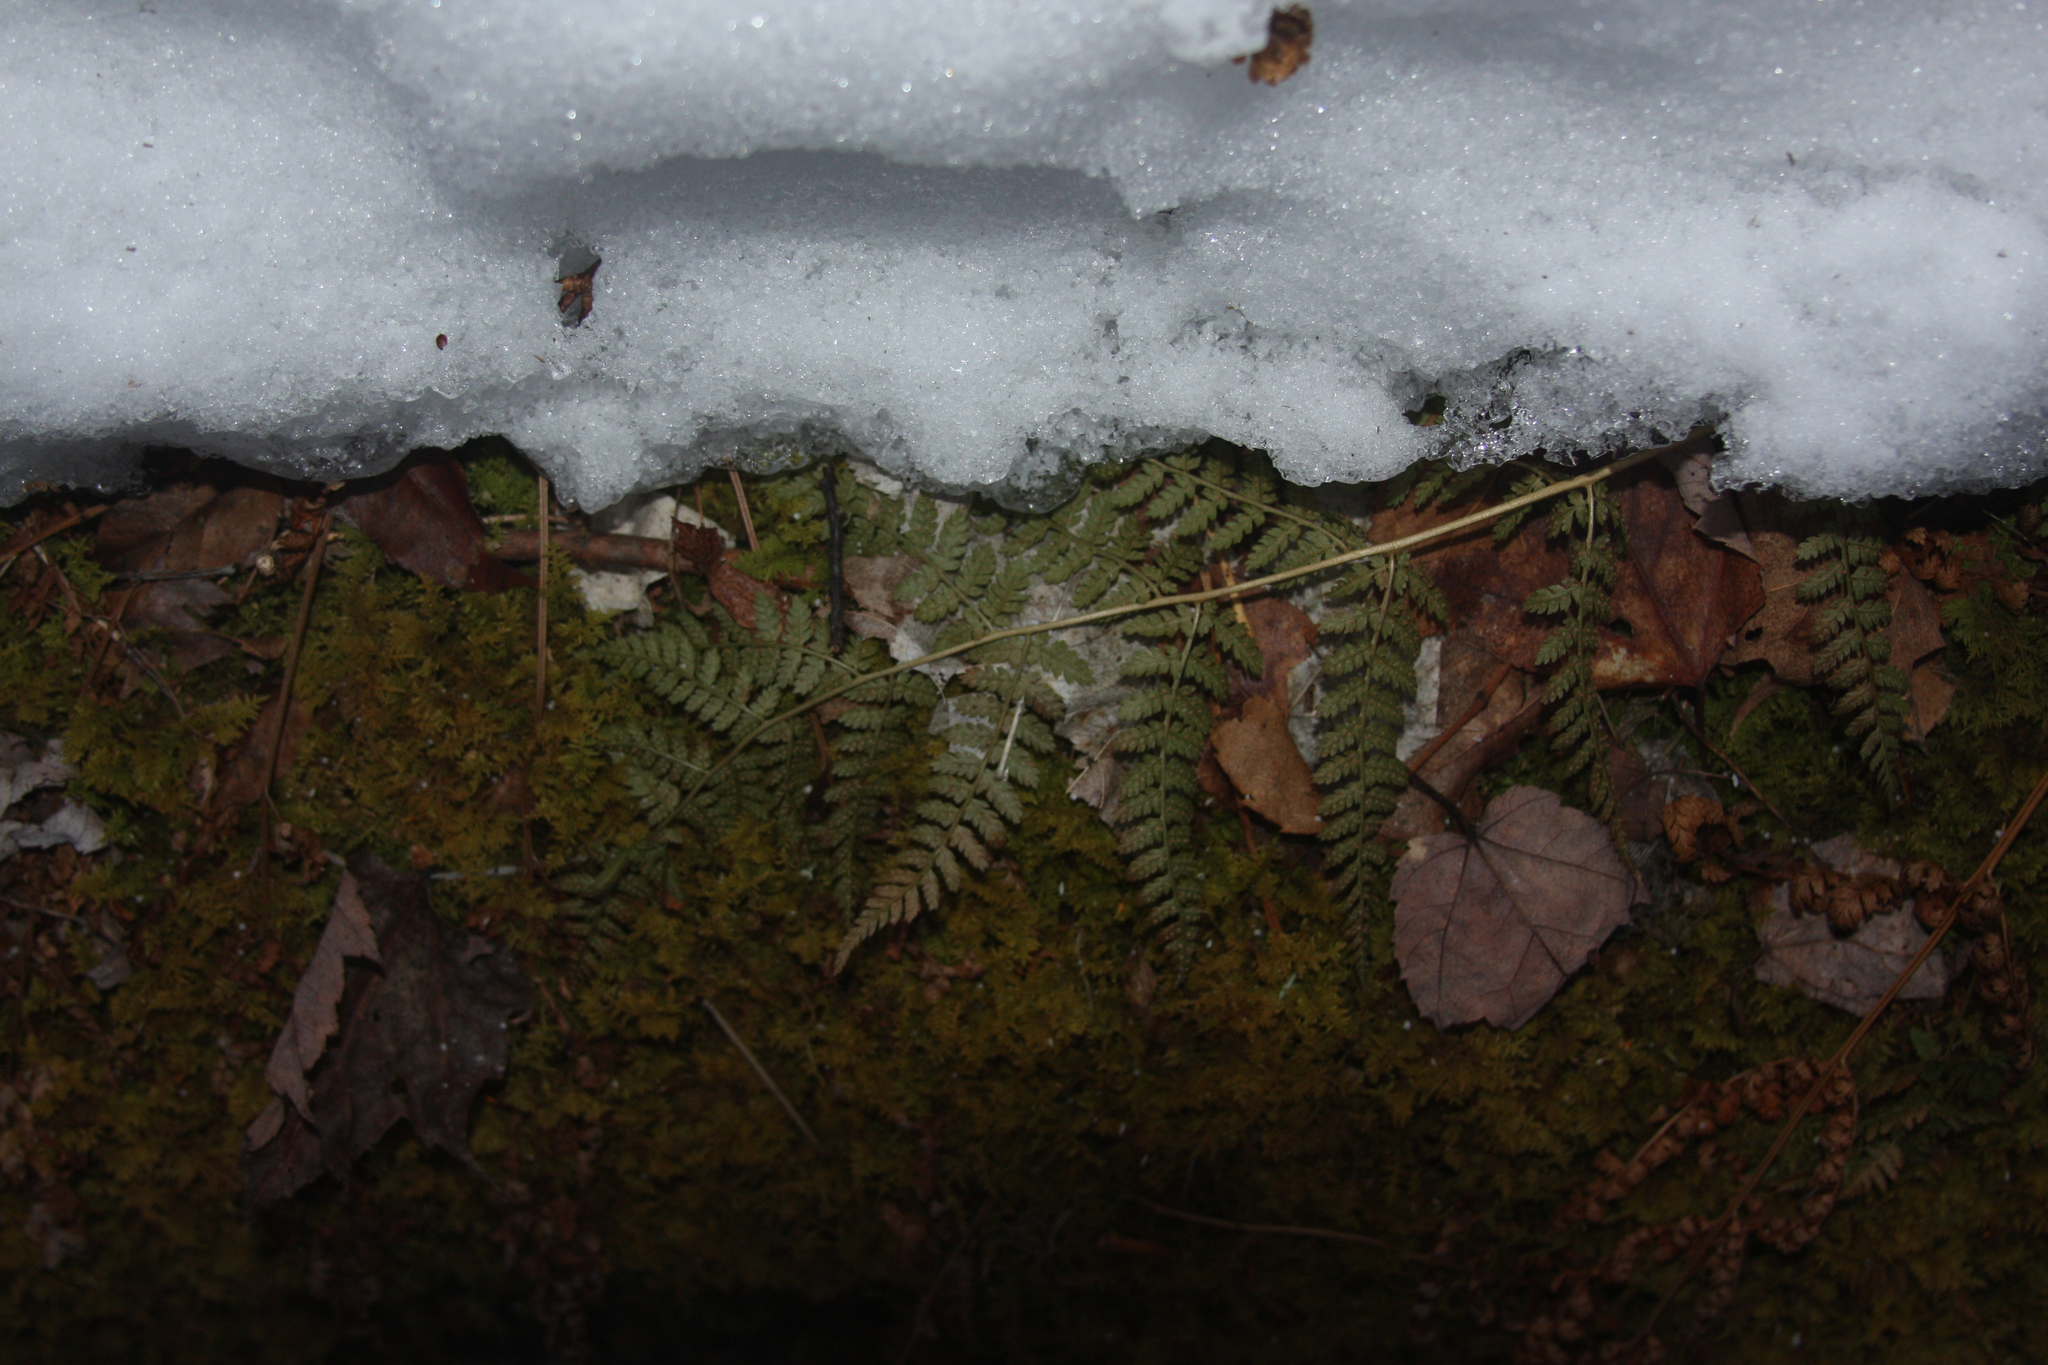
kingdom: Plantae
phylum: Tracheophyta
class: Polypodiopsida
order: Polypodiales
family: Dryopteridaceae
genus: Dryopteris
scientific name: Dryopteris intermedia
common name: Evergreen wood fern
